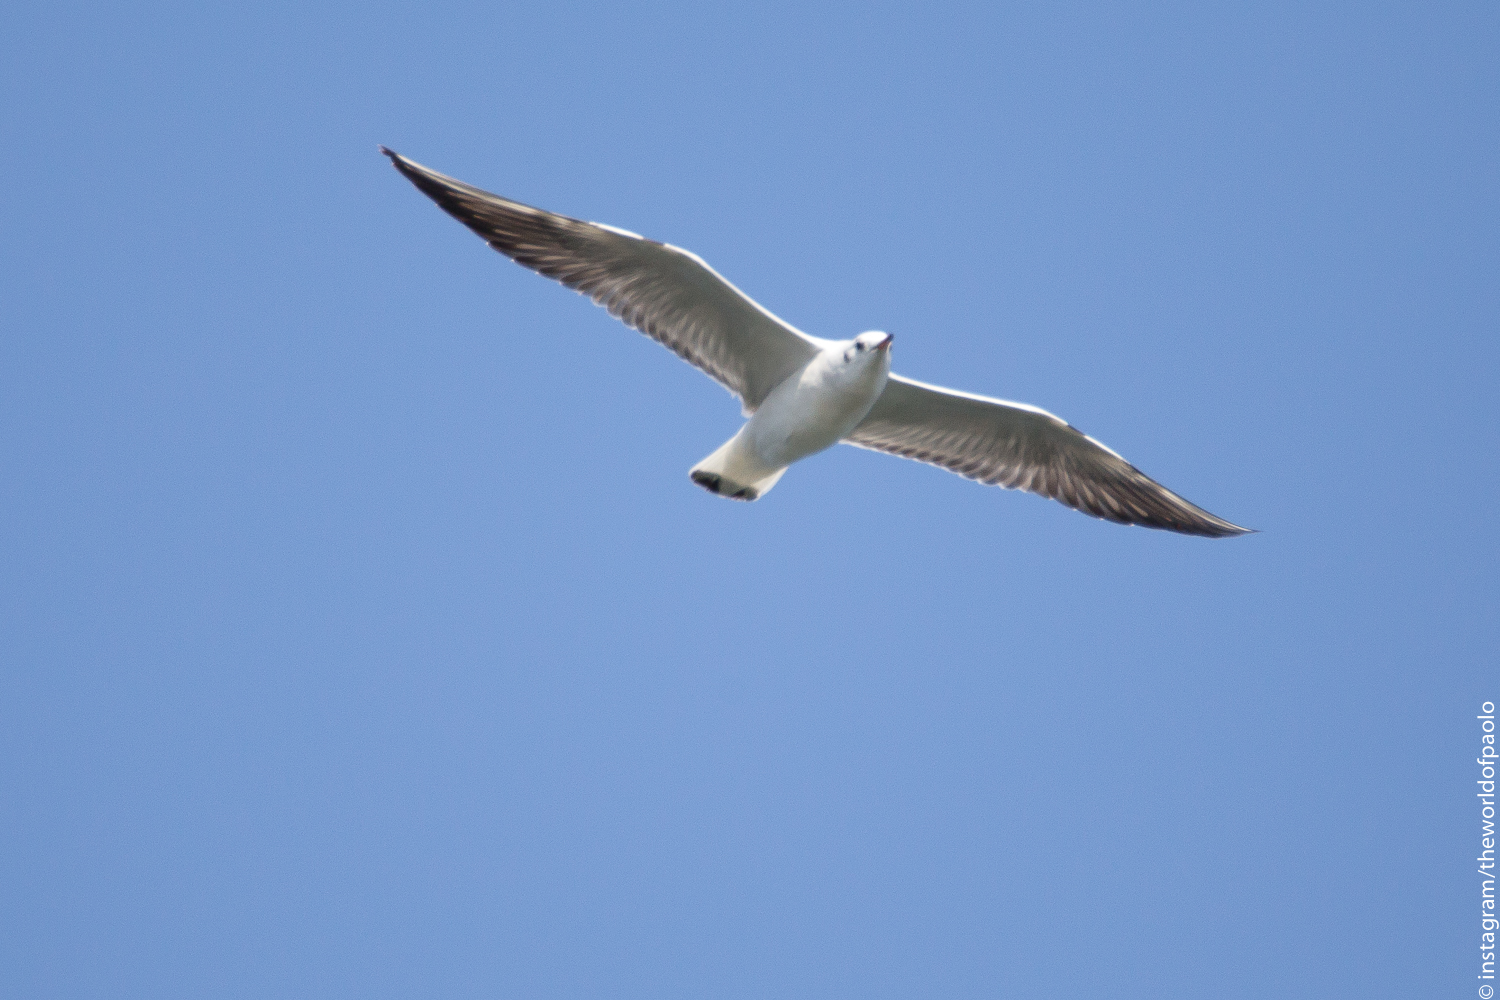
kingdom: Animalia
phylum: Chordata
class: Aves
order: Charadriiformes
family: Laridae
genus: Chroicocephalus
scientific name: Chroicocephalus ridibundus
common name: Black-headed gull
